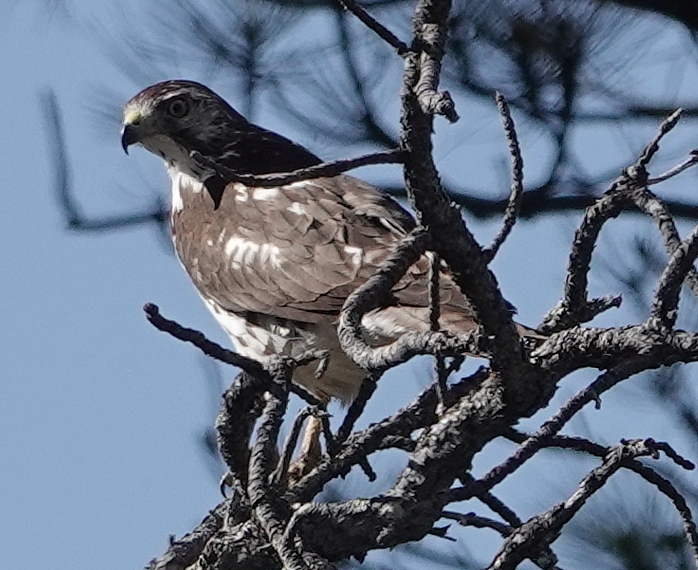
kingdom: Animalia
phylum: Chordata
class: Aves
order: Accipitriformes
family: Accipitridae
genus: Buteo
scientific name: Buteo jamaicensis
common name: Red-tailed hawk
